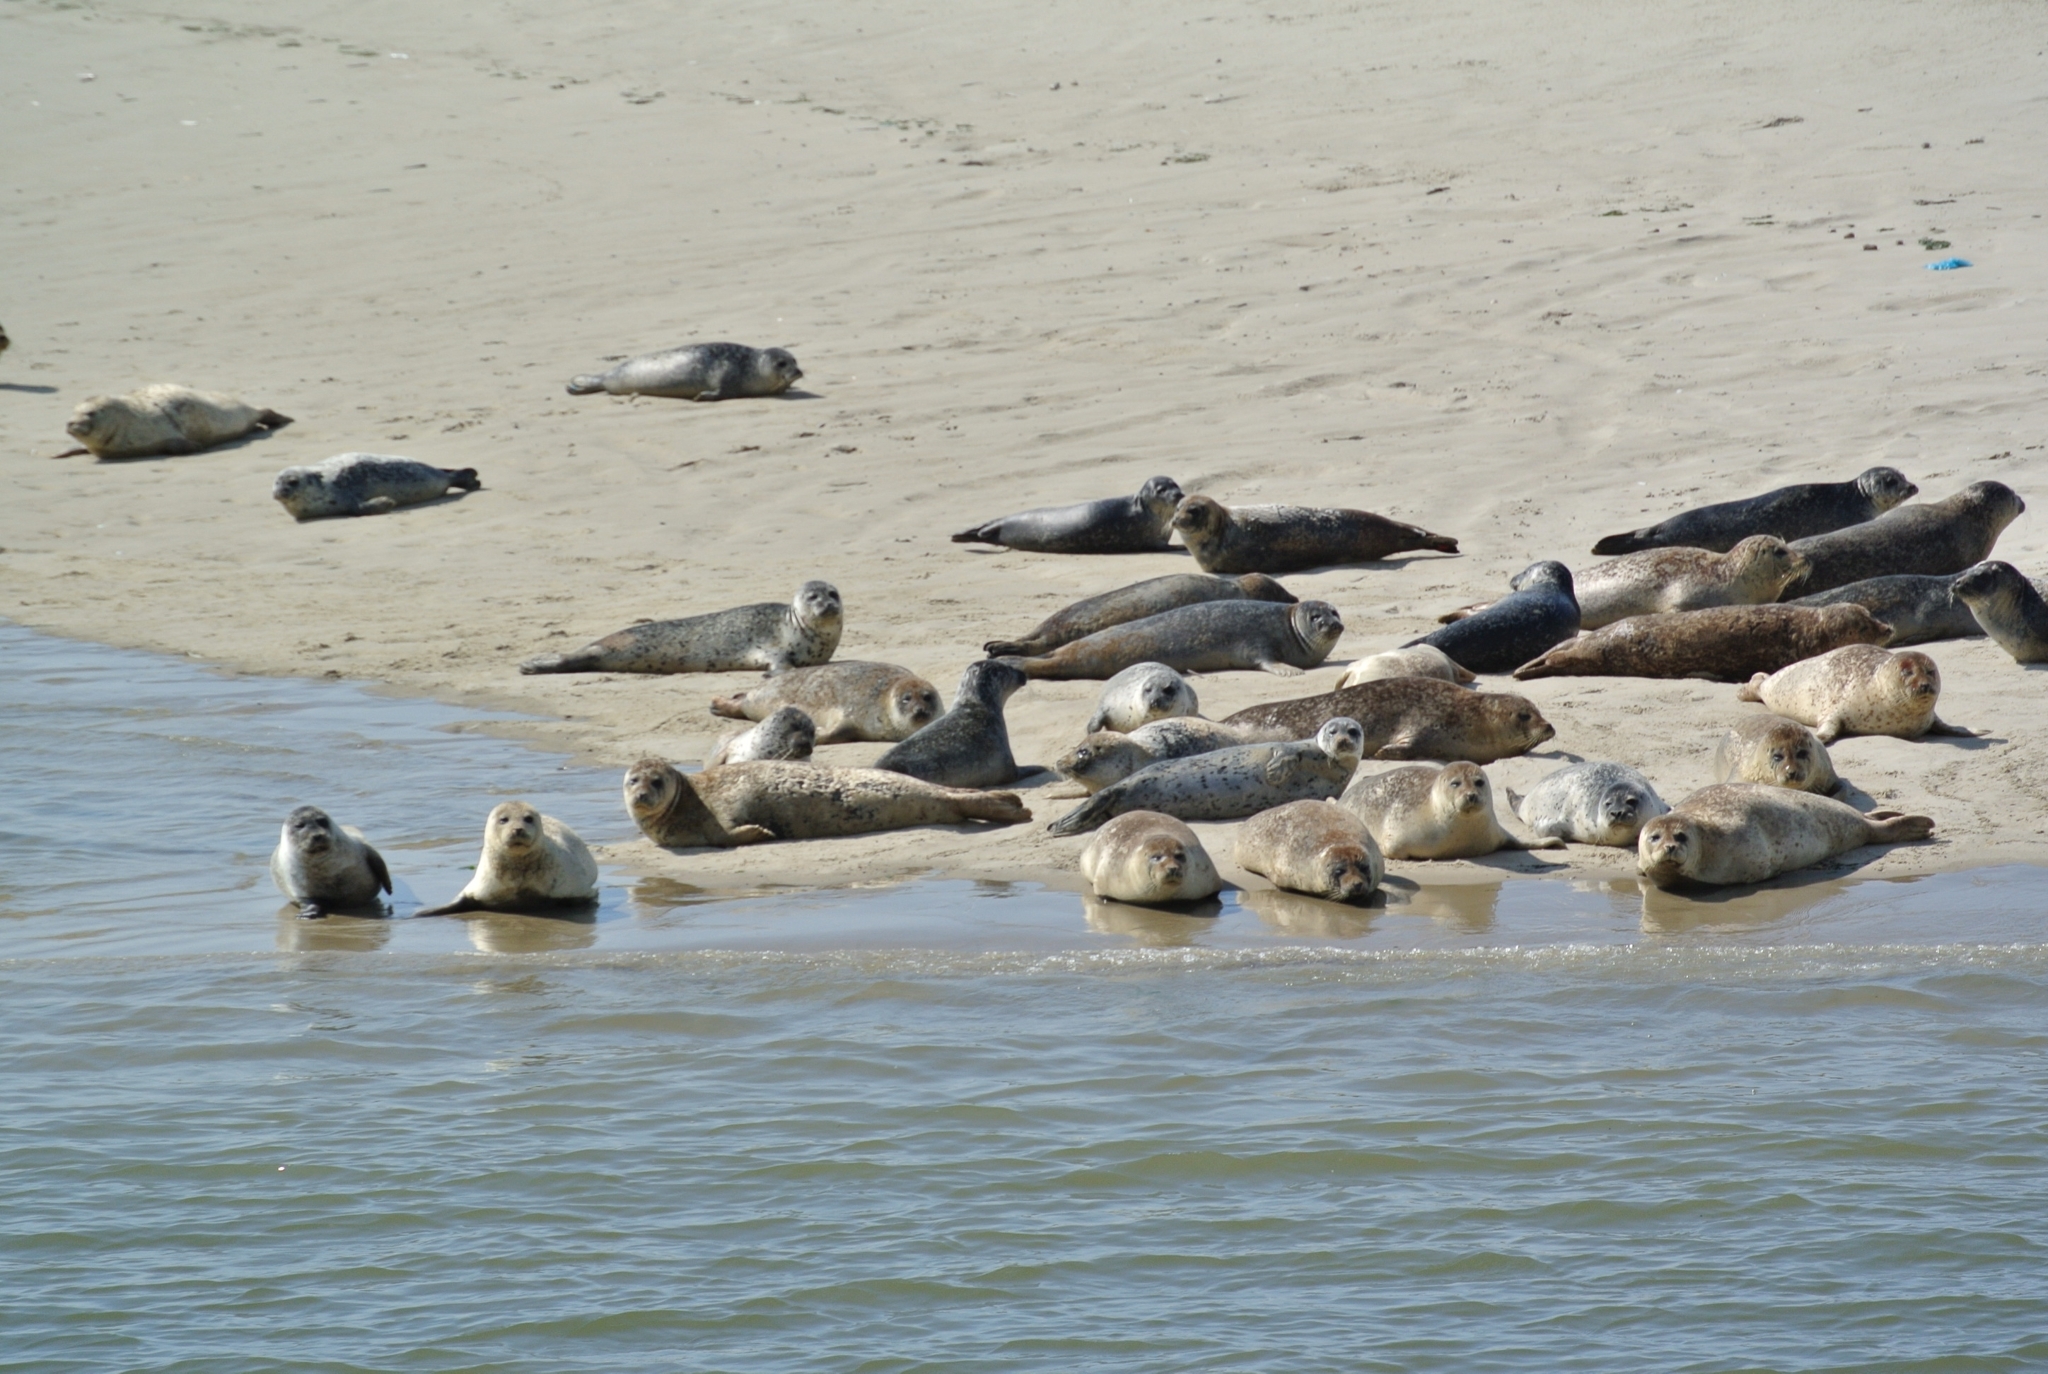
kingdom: Animalia
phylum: Chordata
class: Mammalia
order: Carnivora
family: Phocidae
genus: Phoca
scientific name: Phoca vitulina
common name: Harbor seal
